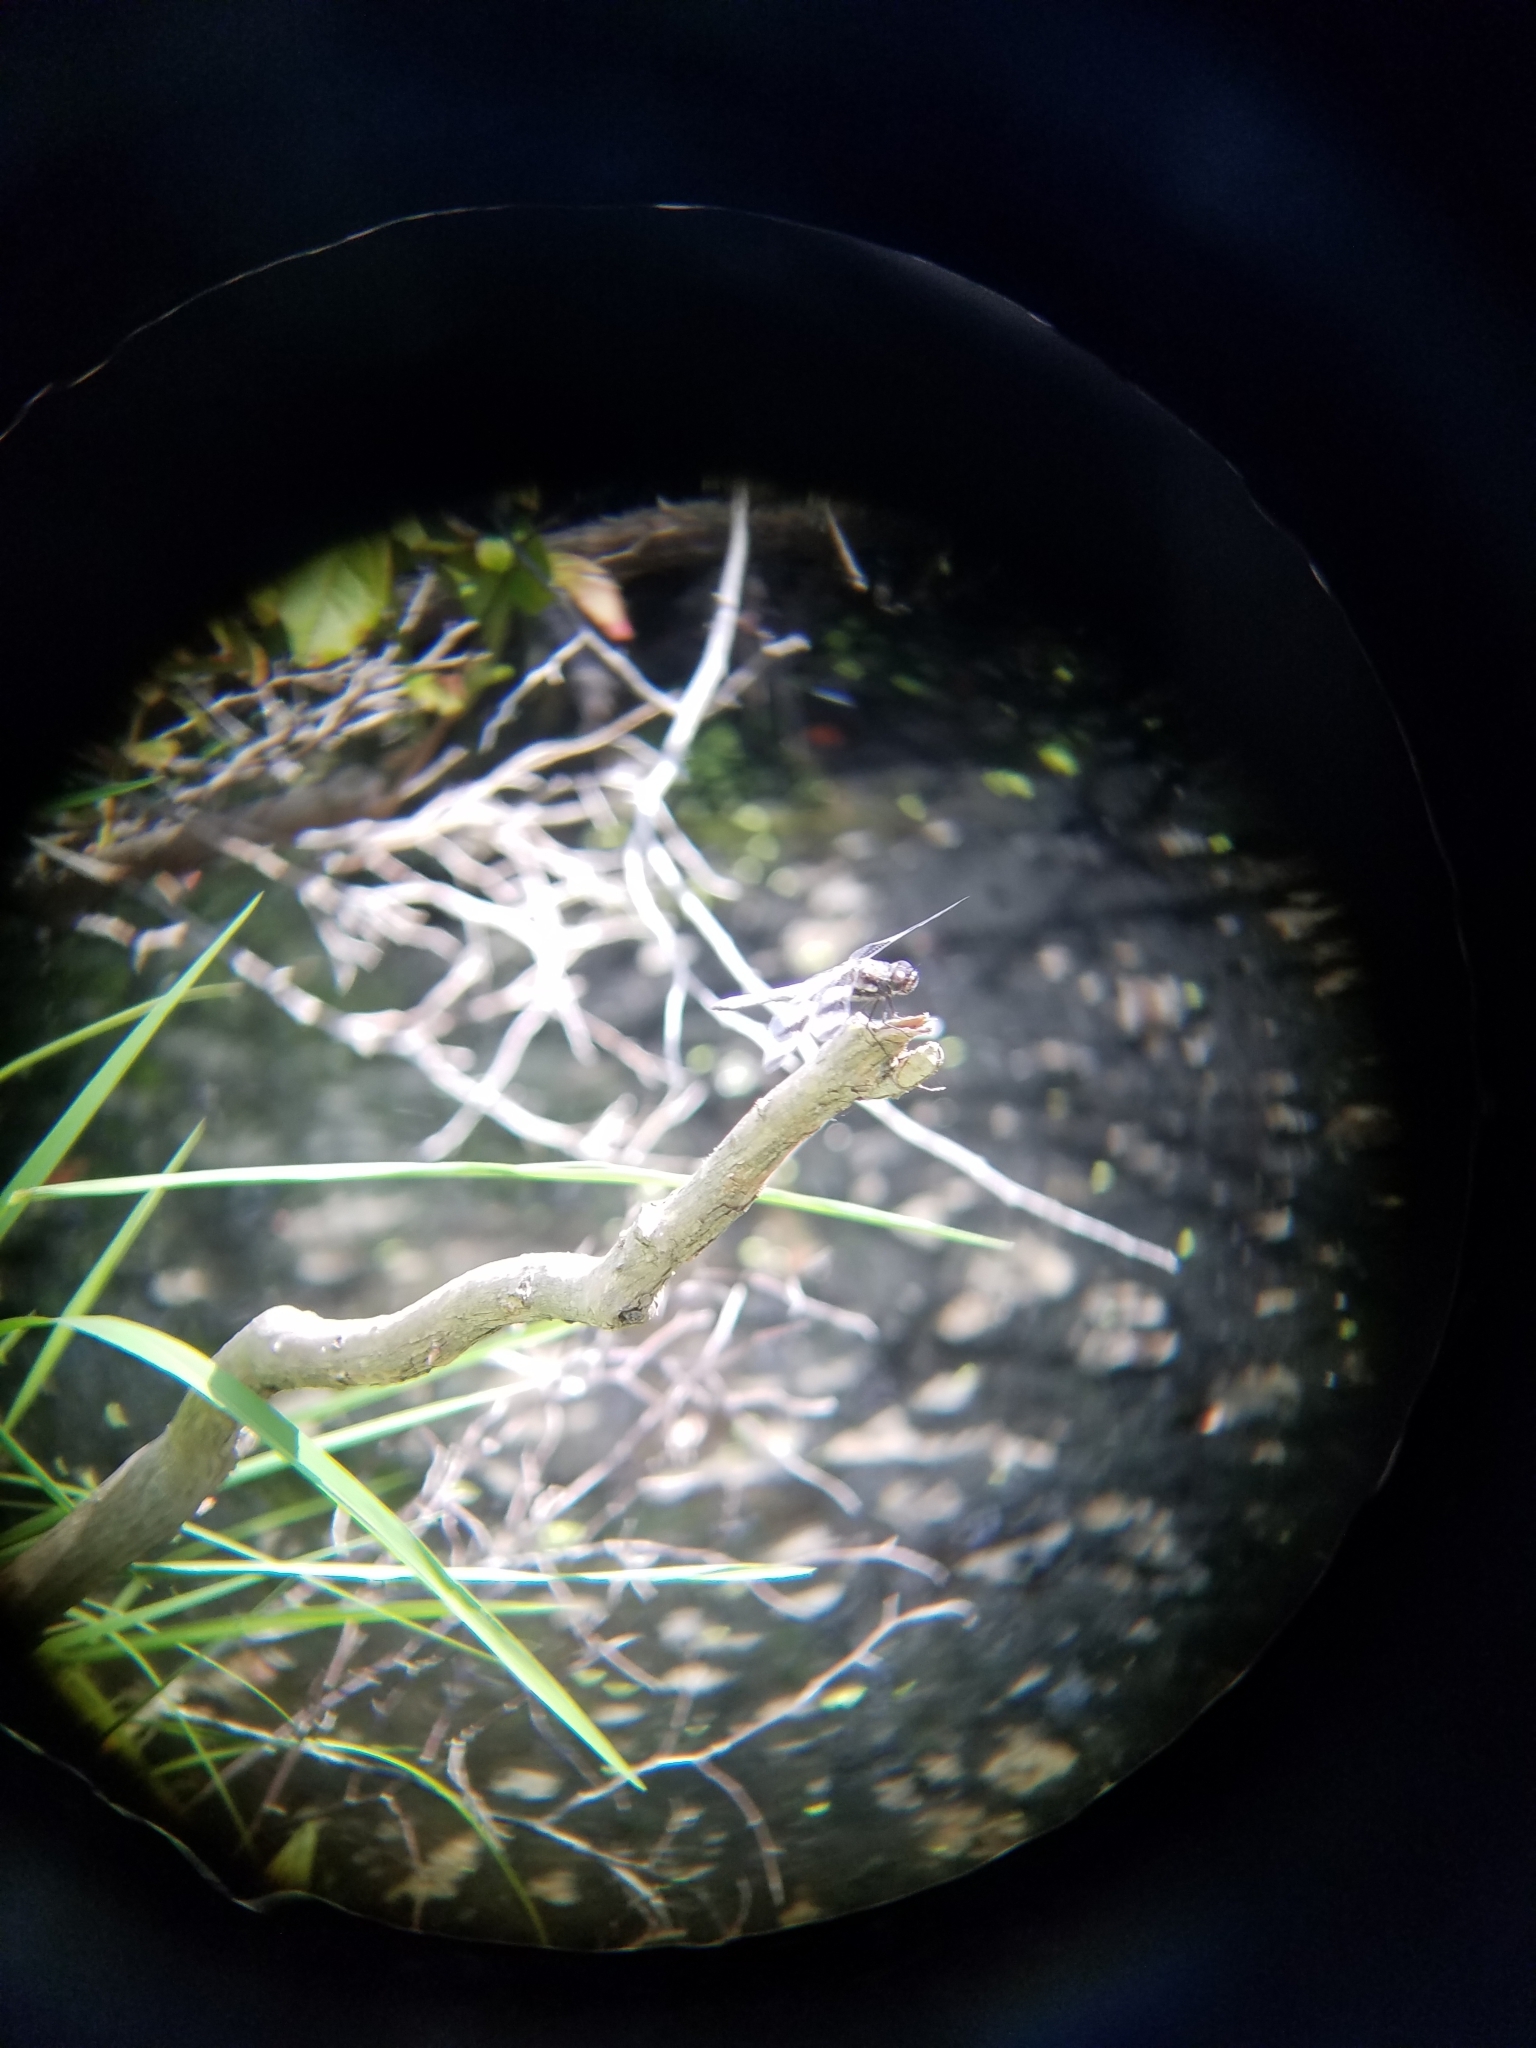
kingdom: Animalia
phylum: Arthropoda
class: Insecta
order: Odonata
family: Libellulidae
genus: Libellula
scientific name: Libellula pulchella
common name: Twelve-spotted skimmer
